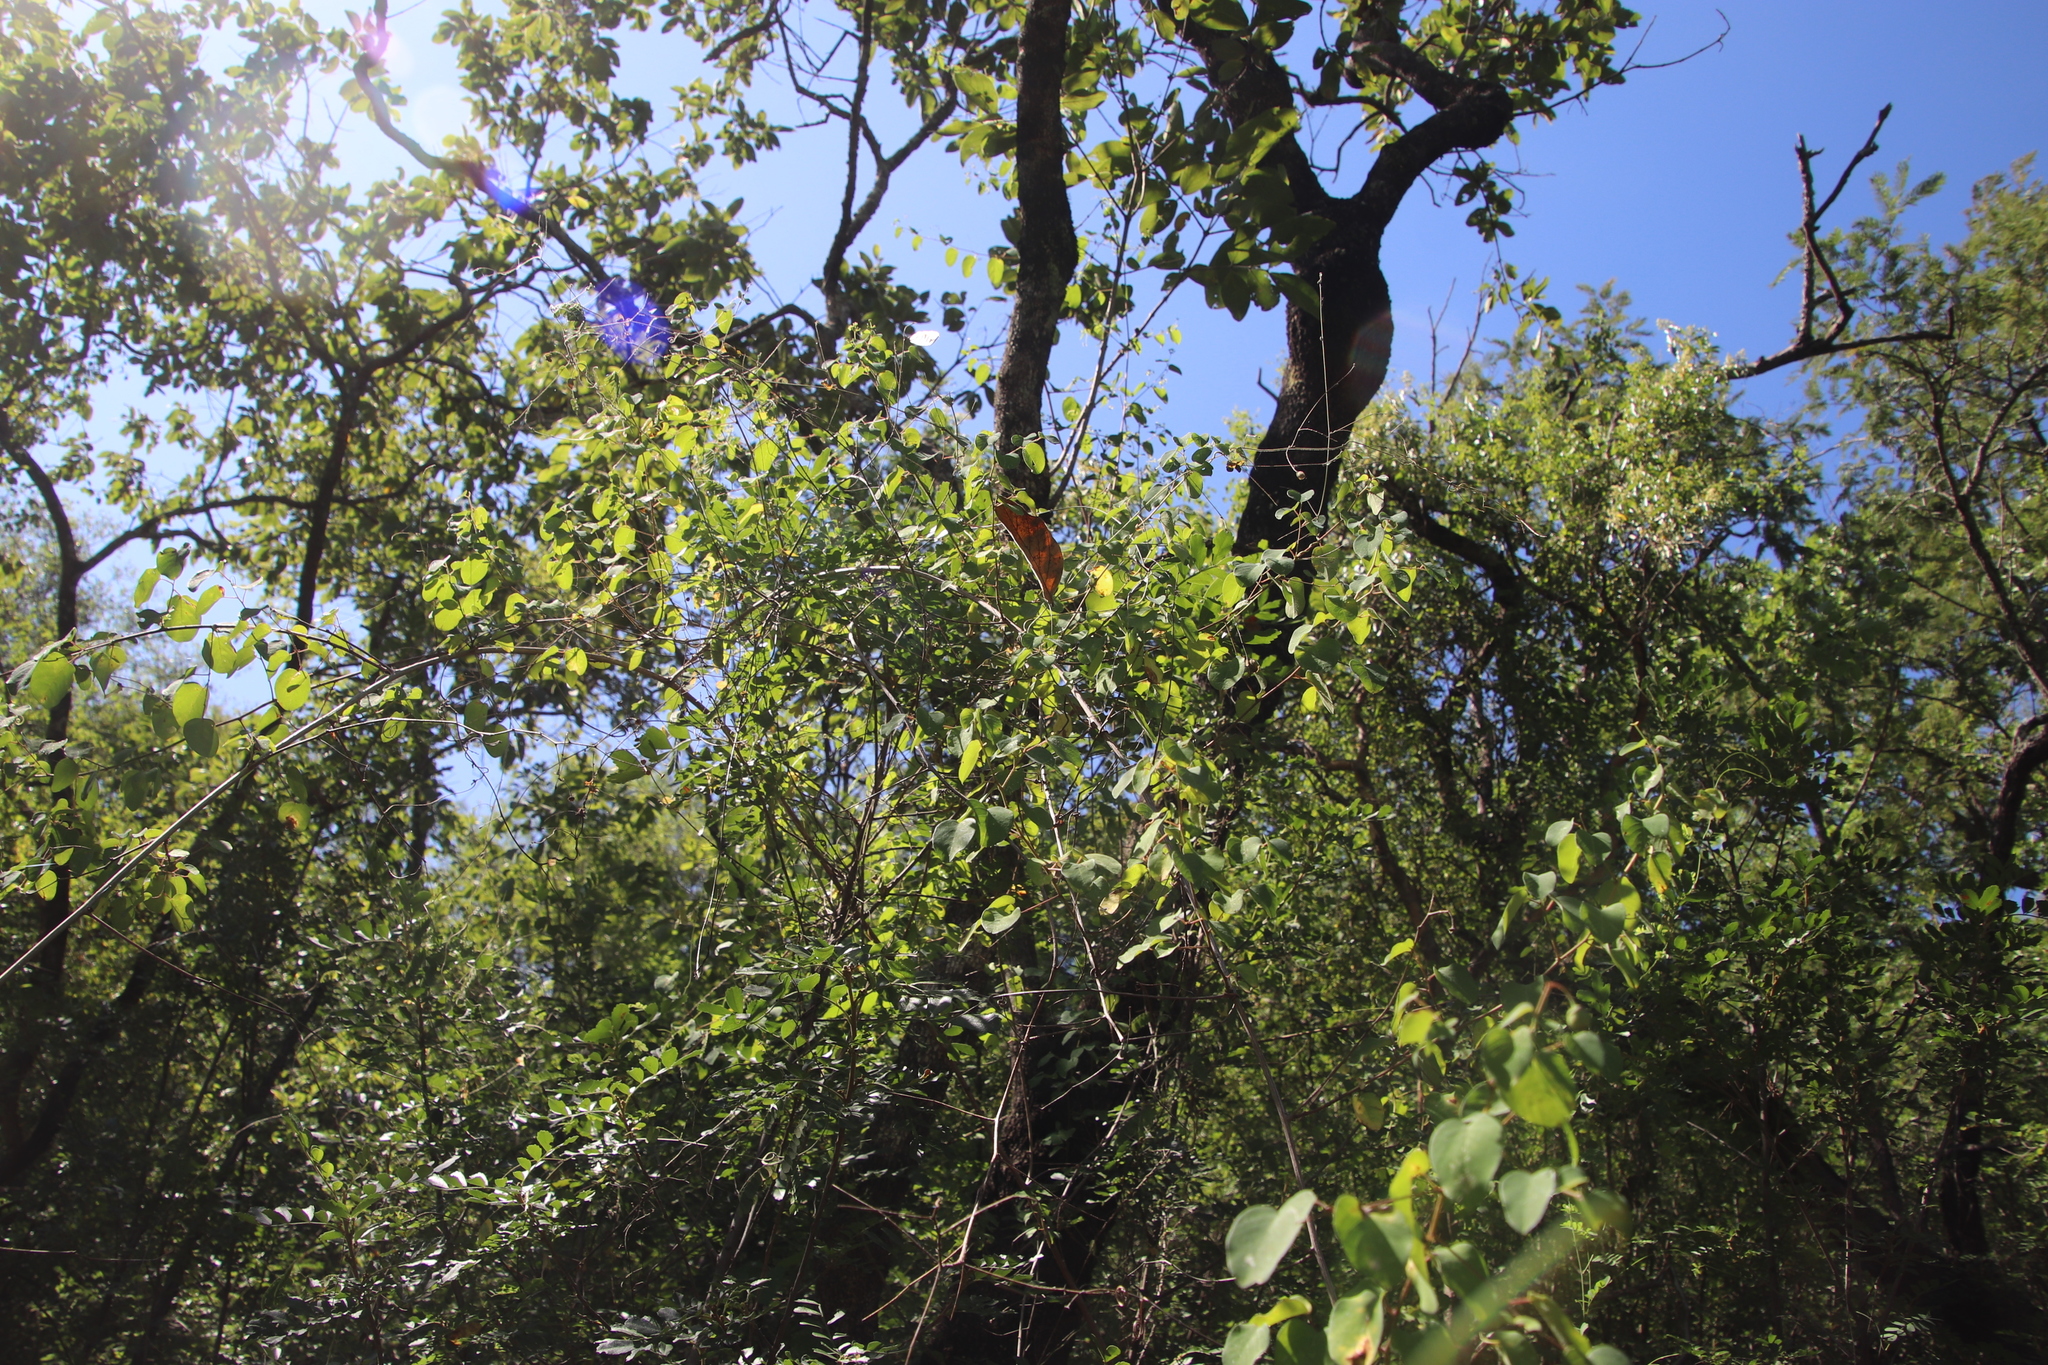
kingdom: Plantae
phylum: Tracheophyta
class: Magnoliopsida
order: Rosales
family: Rhamnaceae
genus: Helinus
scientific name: Helinus integrifolius
